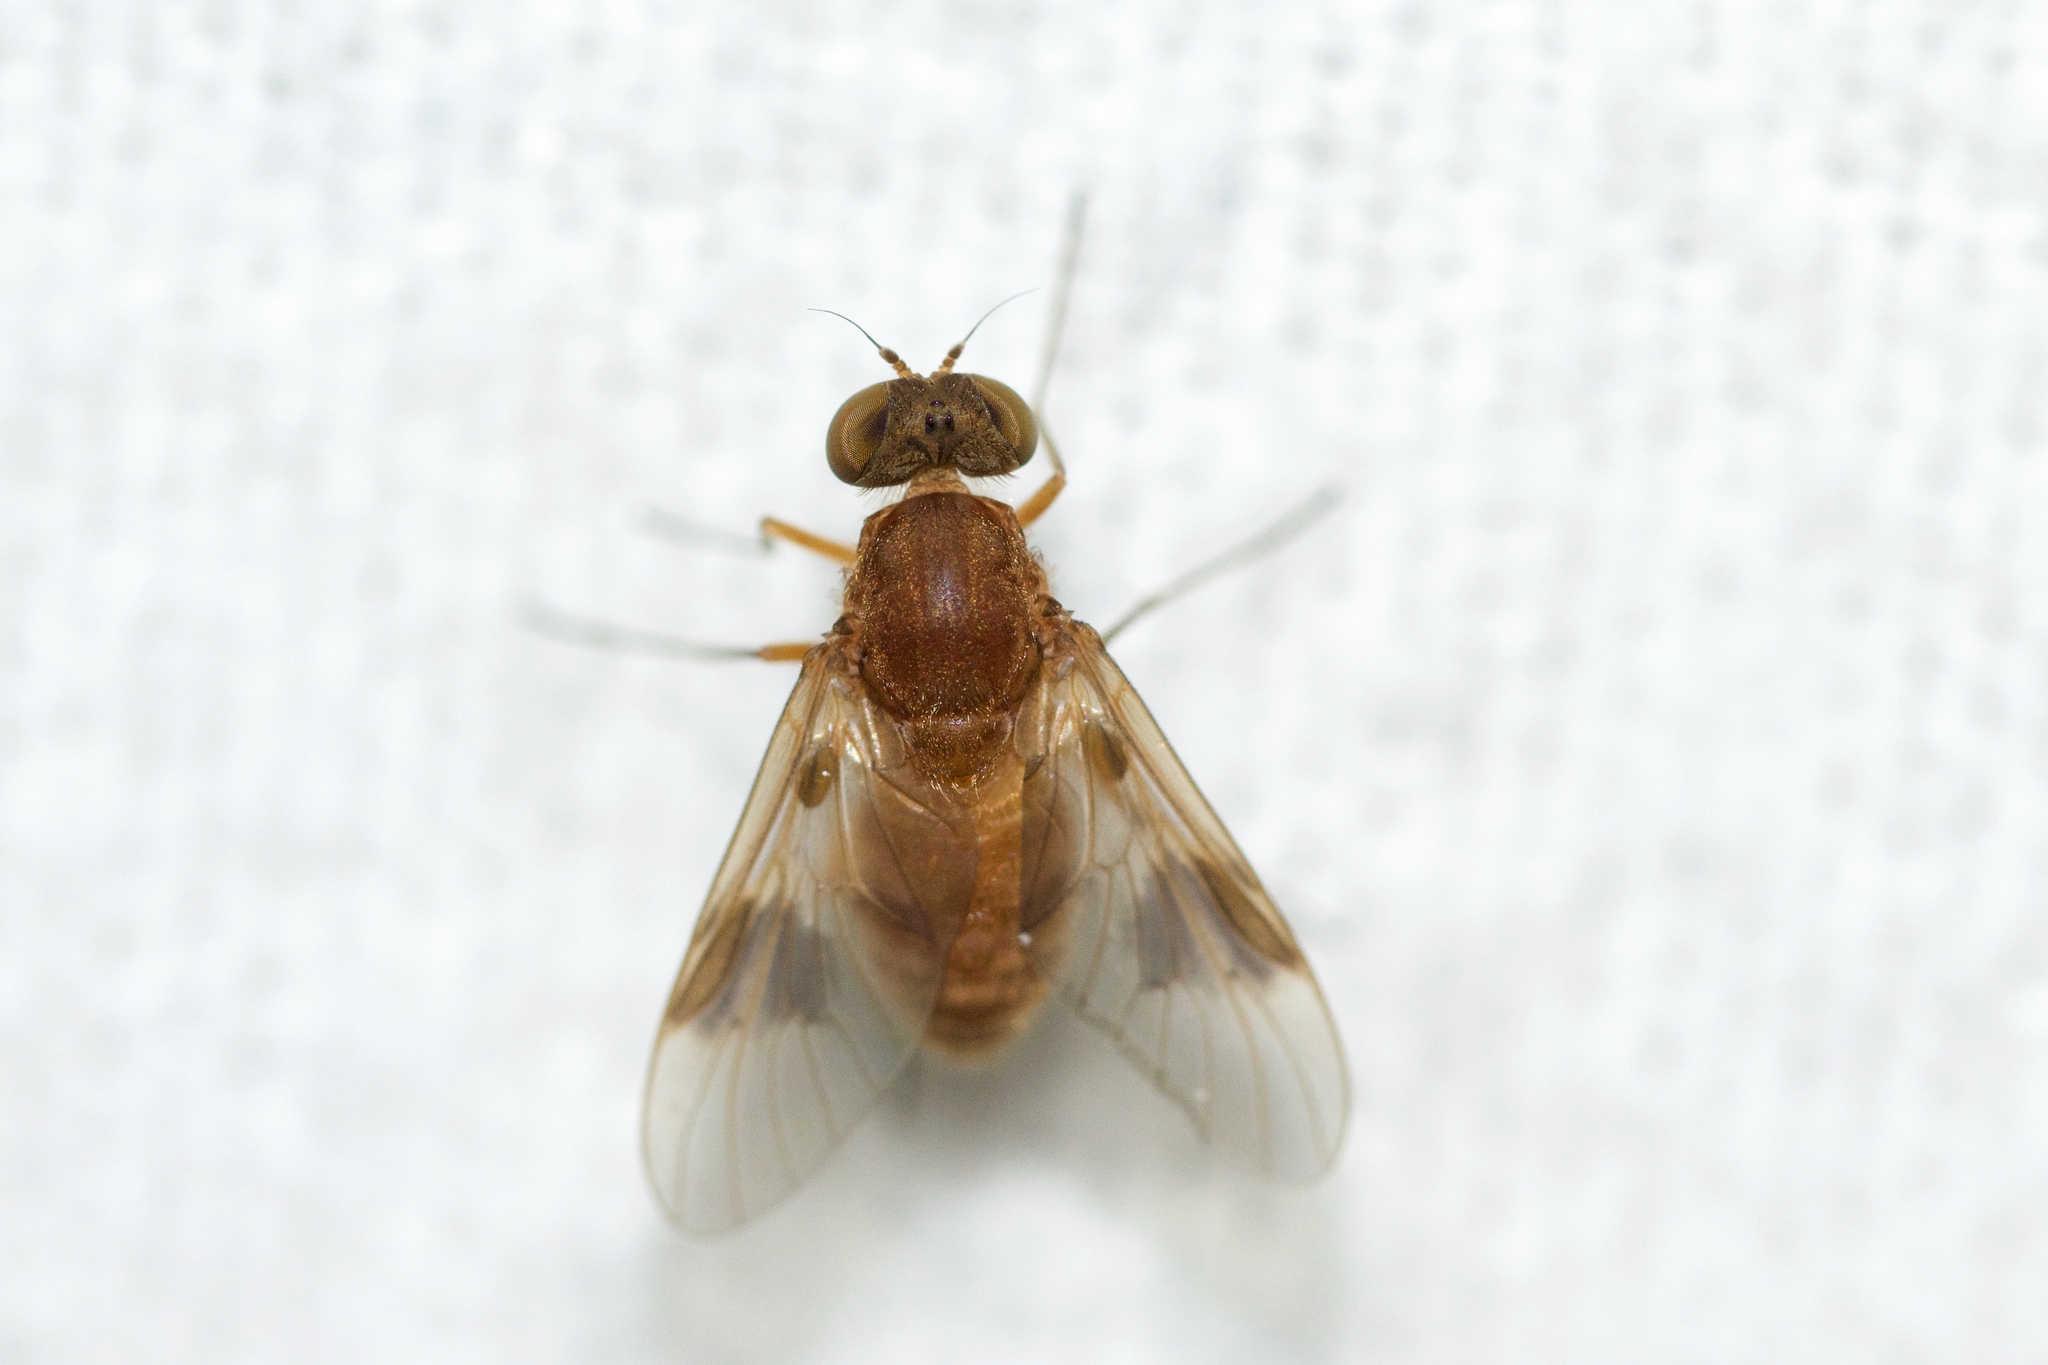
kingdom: Animalia
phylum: Arthropoda
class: Insecta
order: Diptera
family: Rhagionidae
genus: Chrysopilus
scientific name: Chrysopilus quadratus
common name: Quadrate snipe fly
